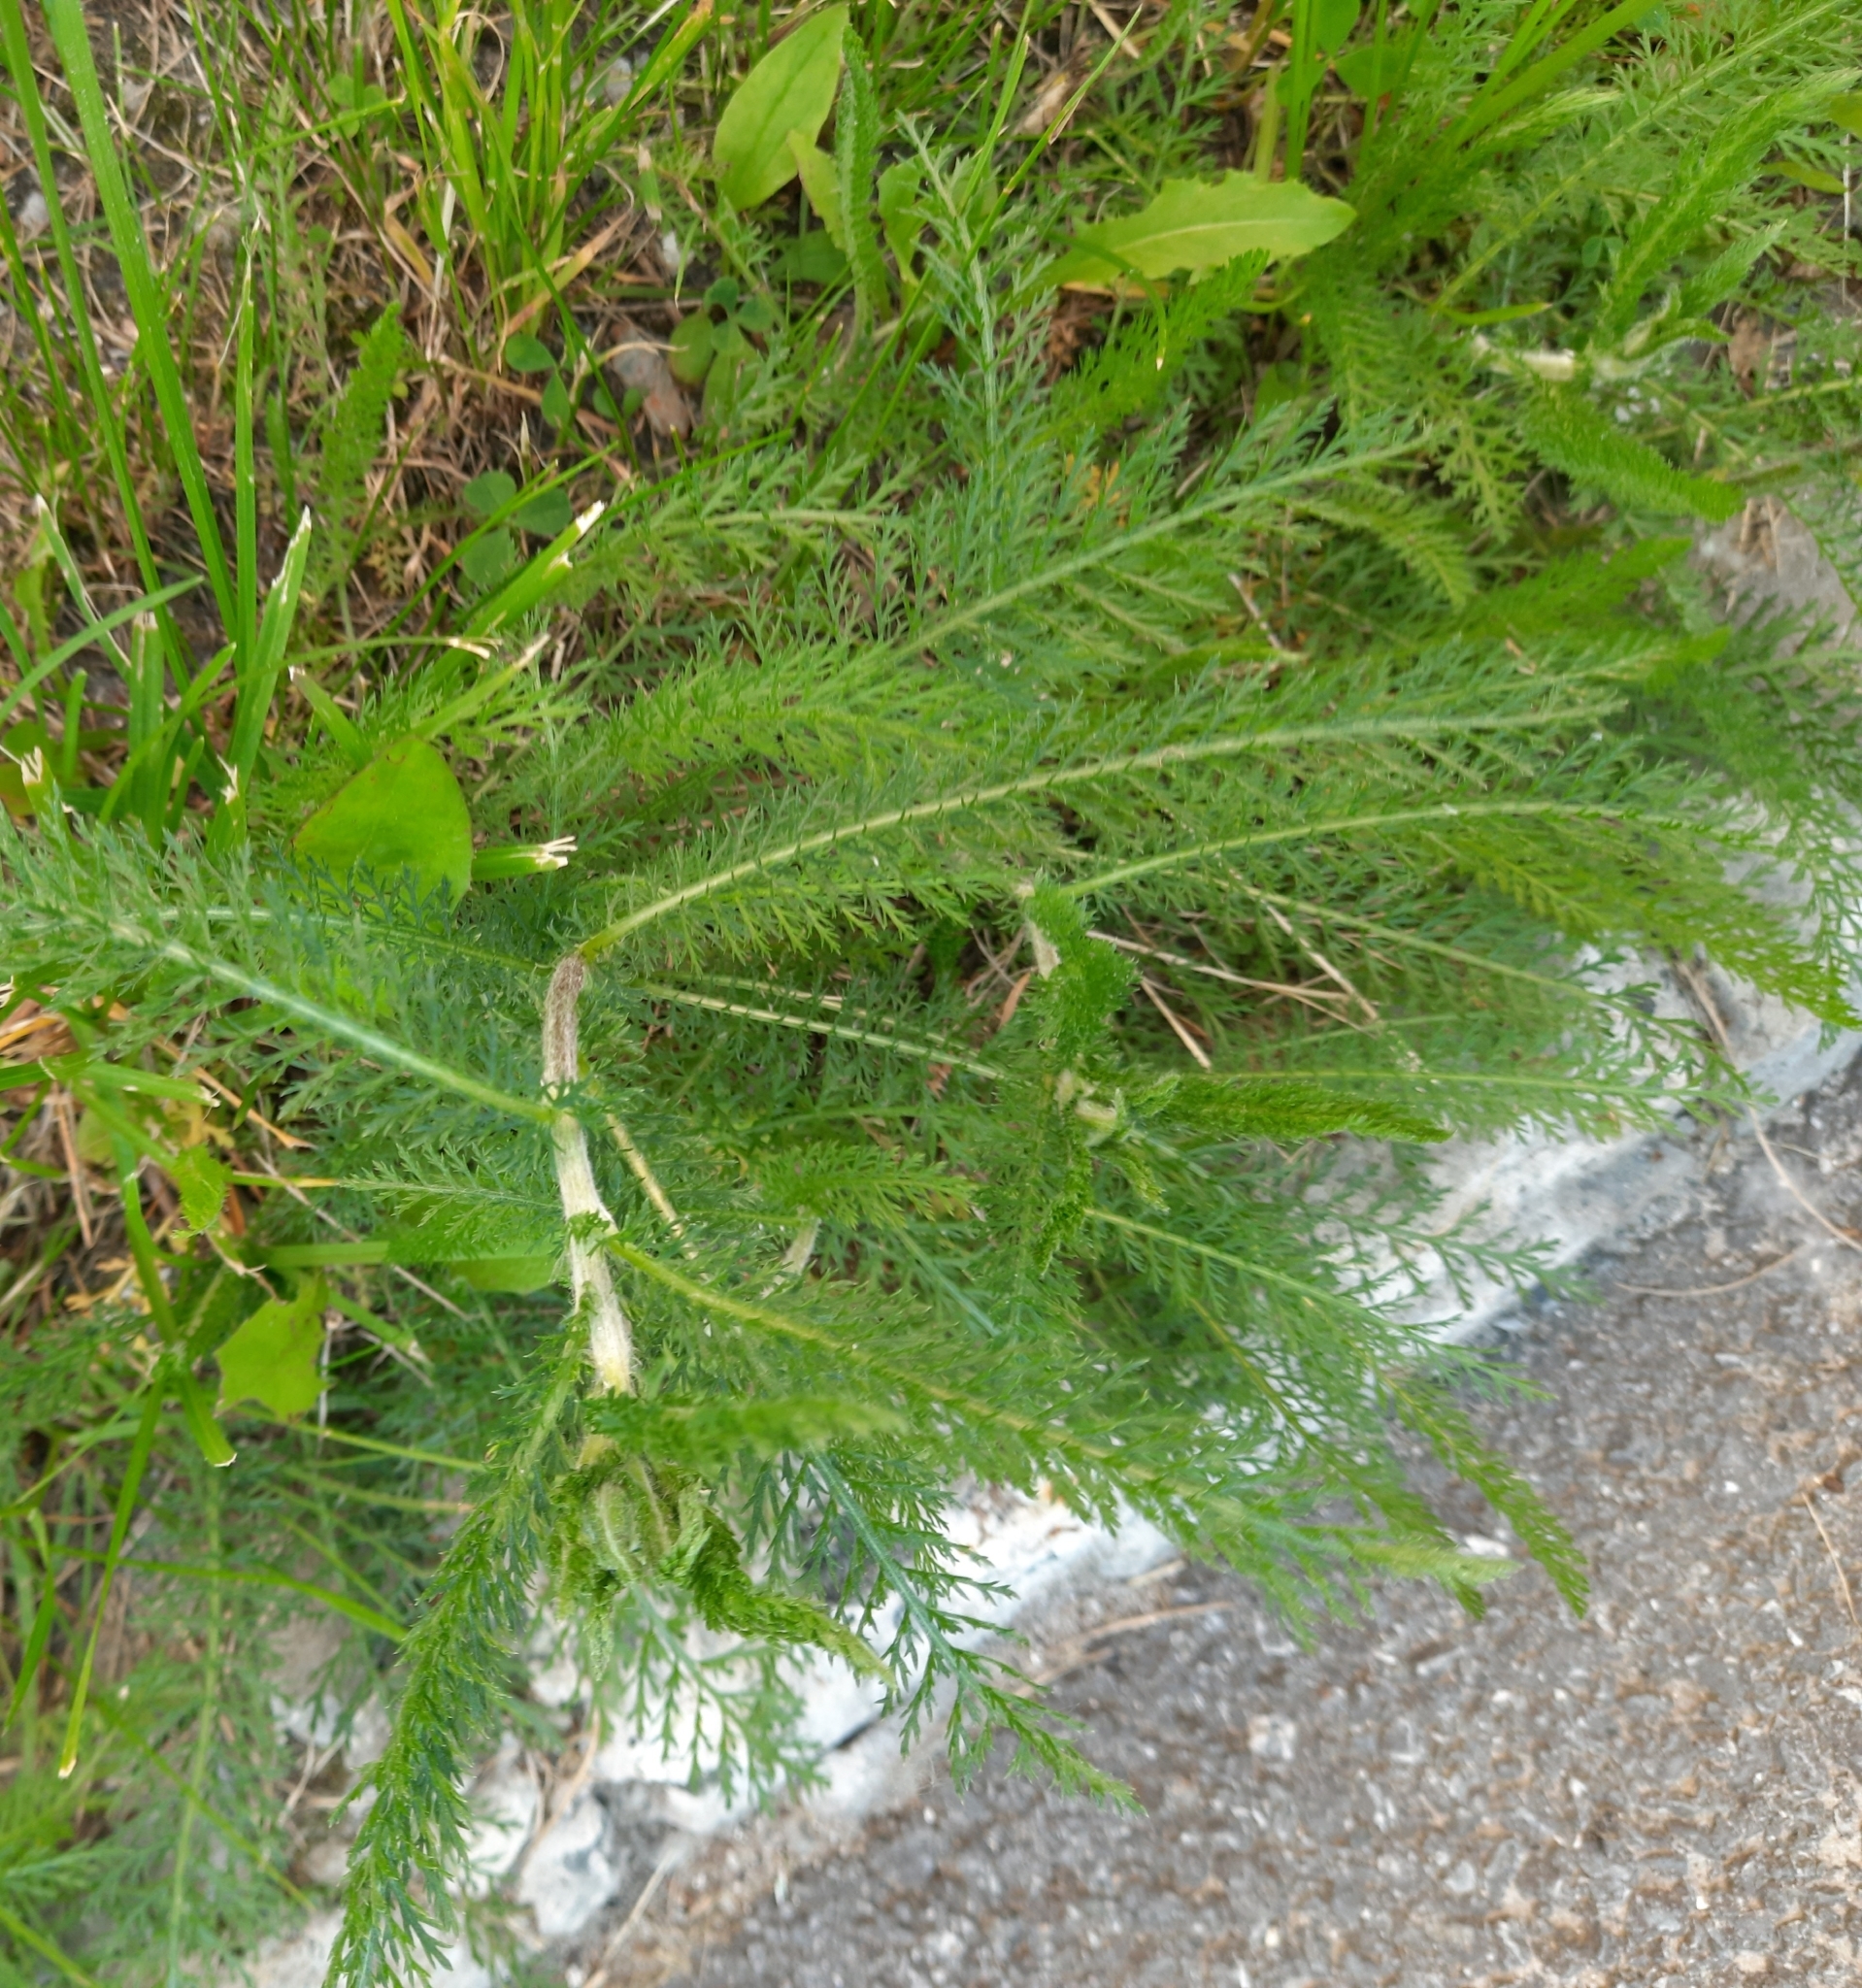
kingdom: Plantae
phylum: Tracheophyta
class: Magnoliopsida
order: Asterales
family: Asteraceae
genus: Achillea
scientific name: Achillea millefolium
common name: Yarrow
